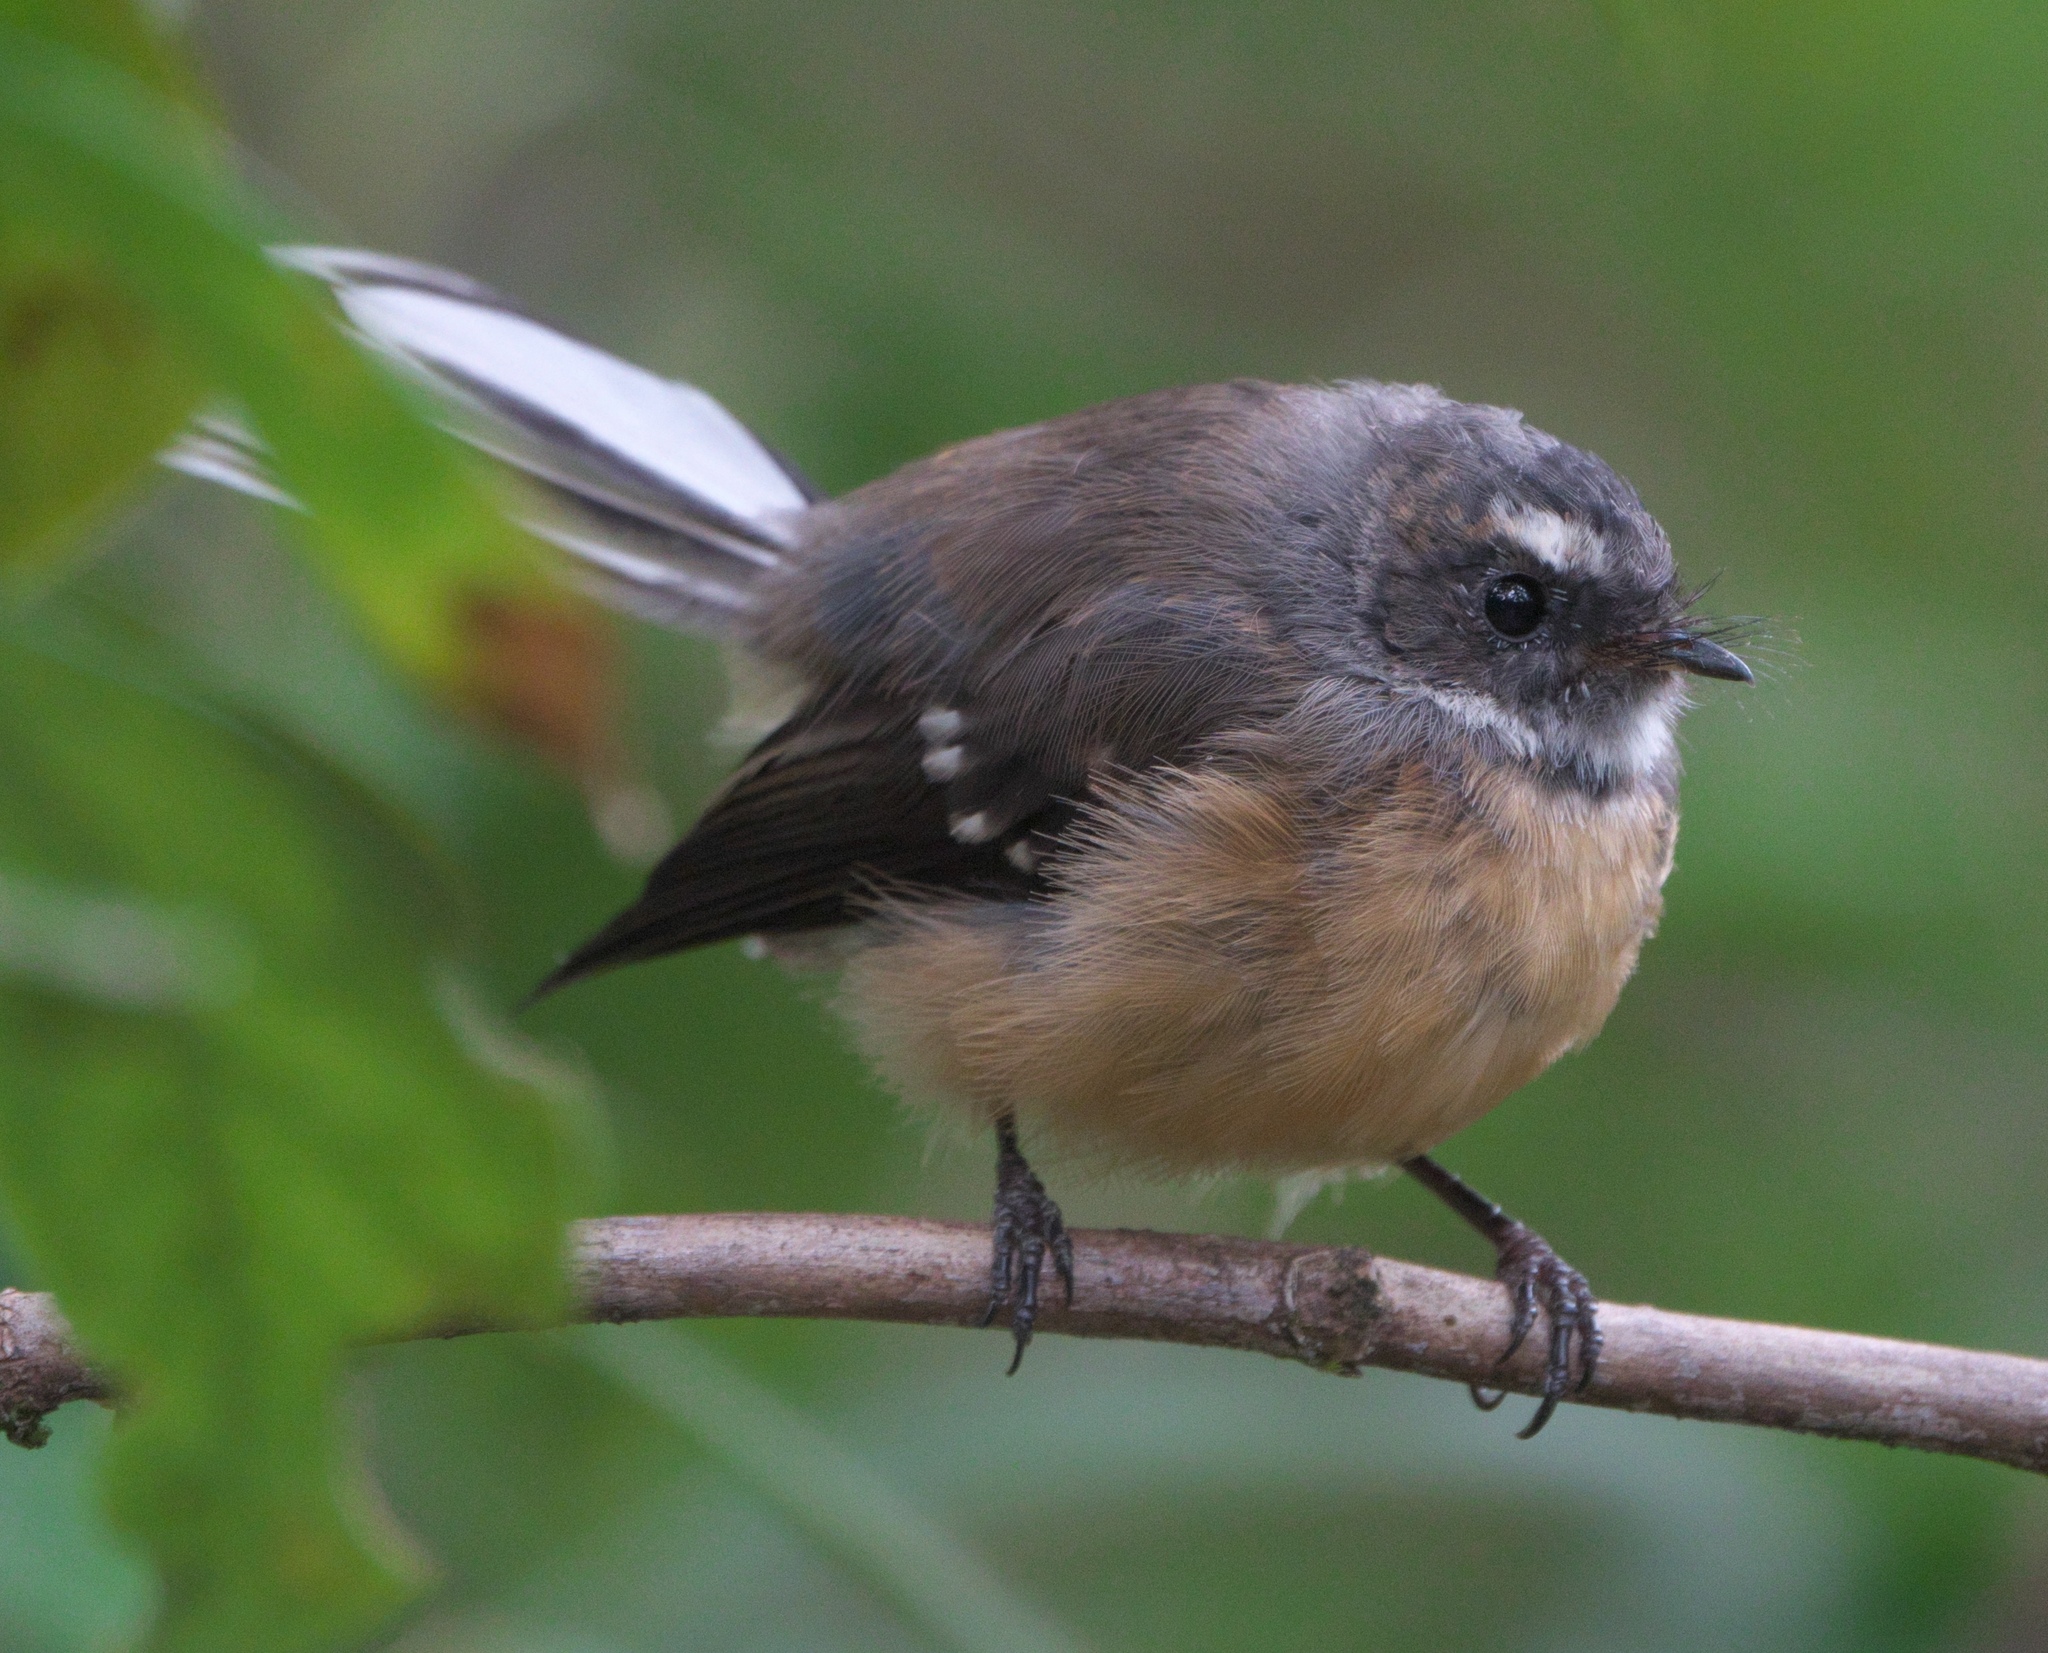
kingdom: Animalia
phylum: Chordata
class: Aves
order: Passeriformes
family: Rhipiduridae
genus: Rhipidura
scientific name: Rhipidura fuliginosa
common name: New zealand fantail
